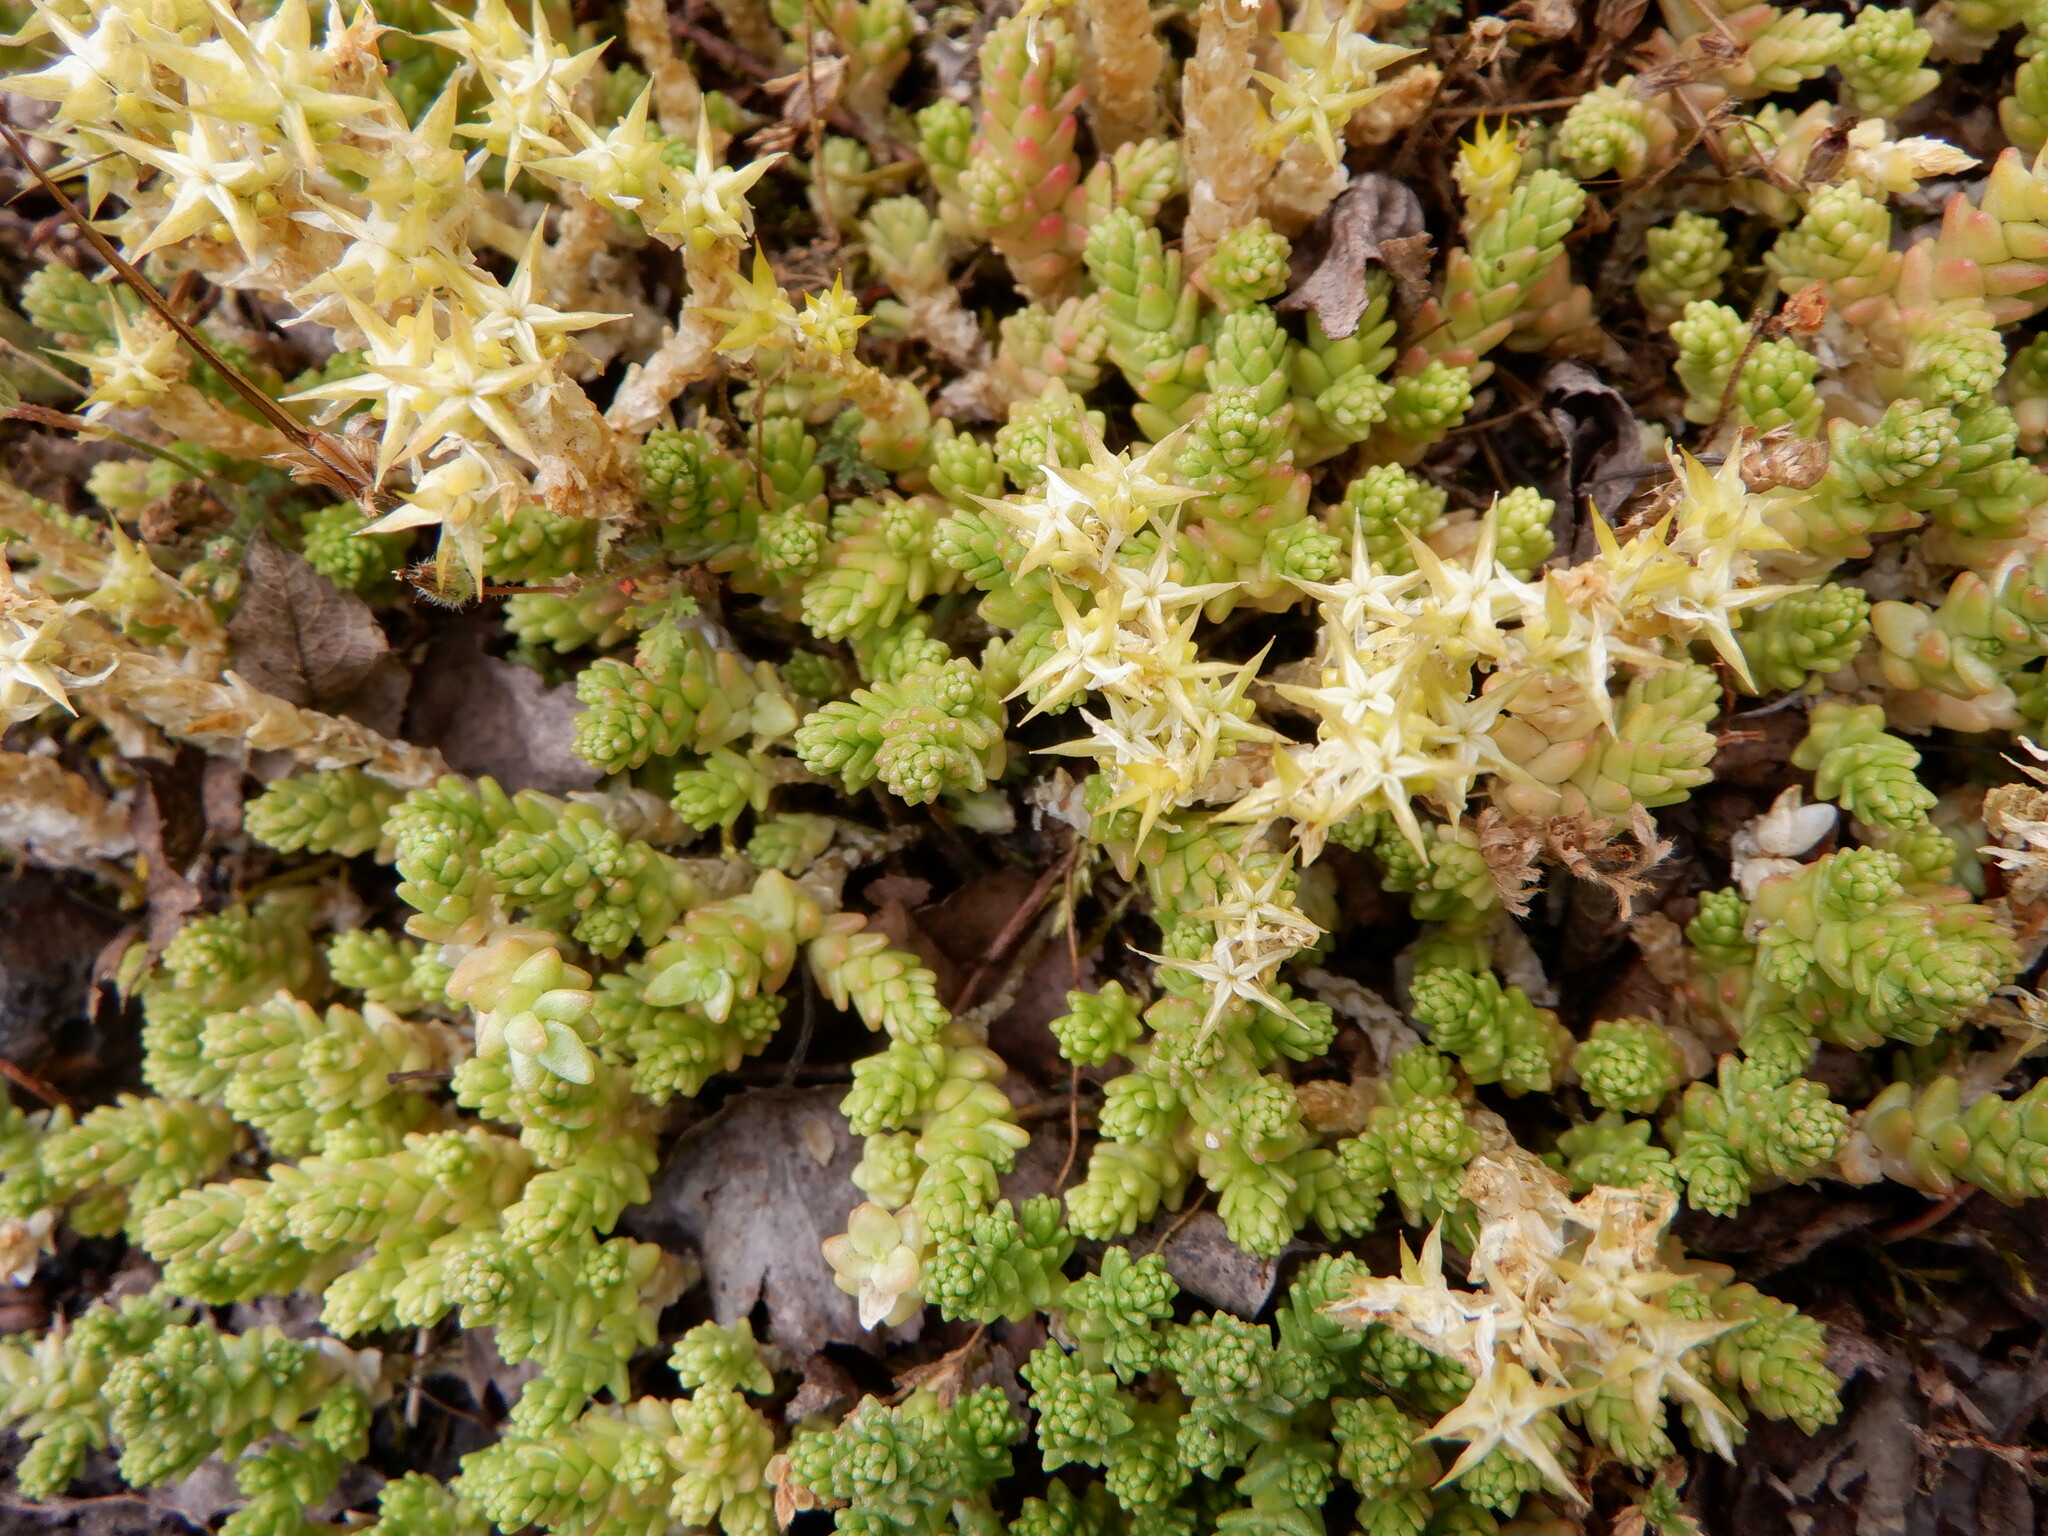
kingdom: Plantae
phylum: Tracheophyta
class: Magnoliopsida
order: Saxifragales
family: Crassulaceae
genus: Sedum
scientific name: Sedum acre
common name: Biting stonecrop
